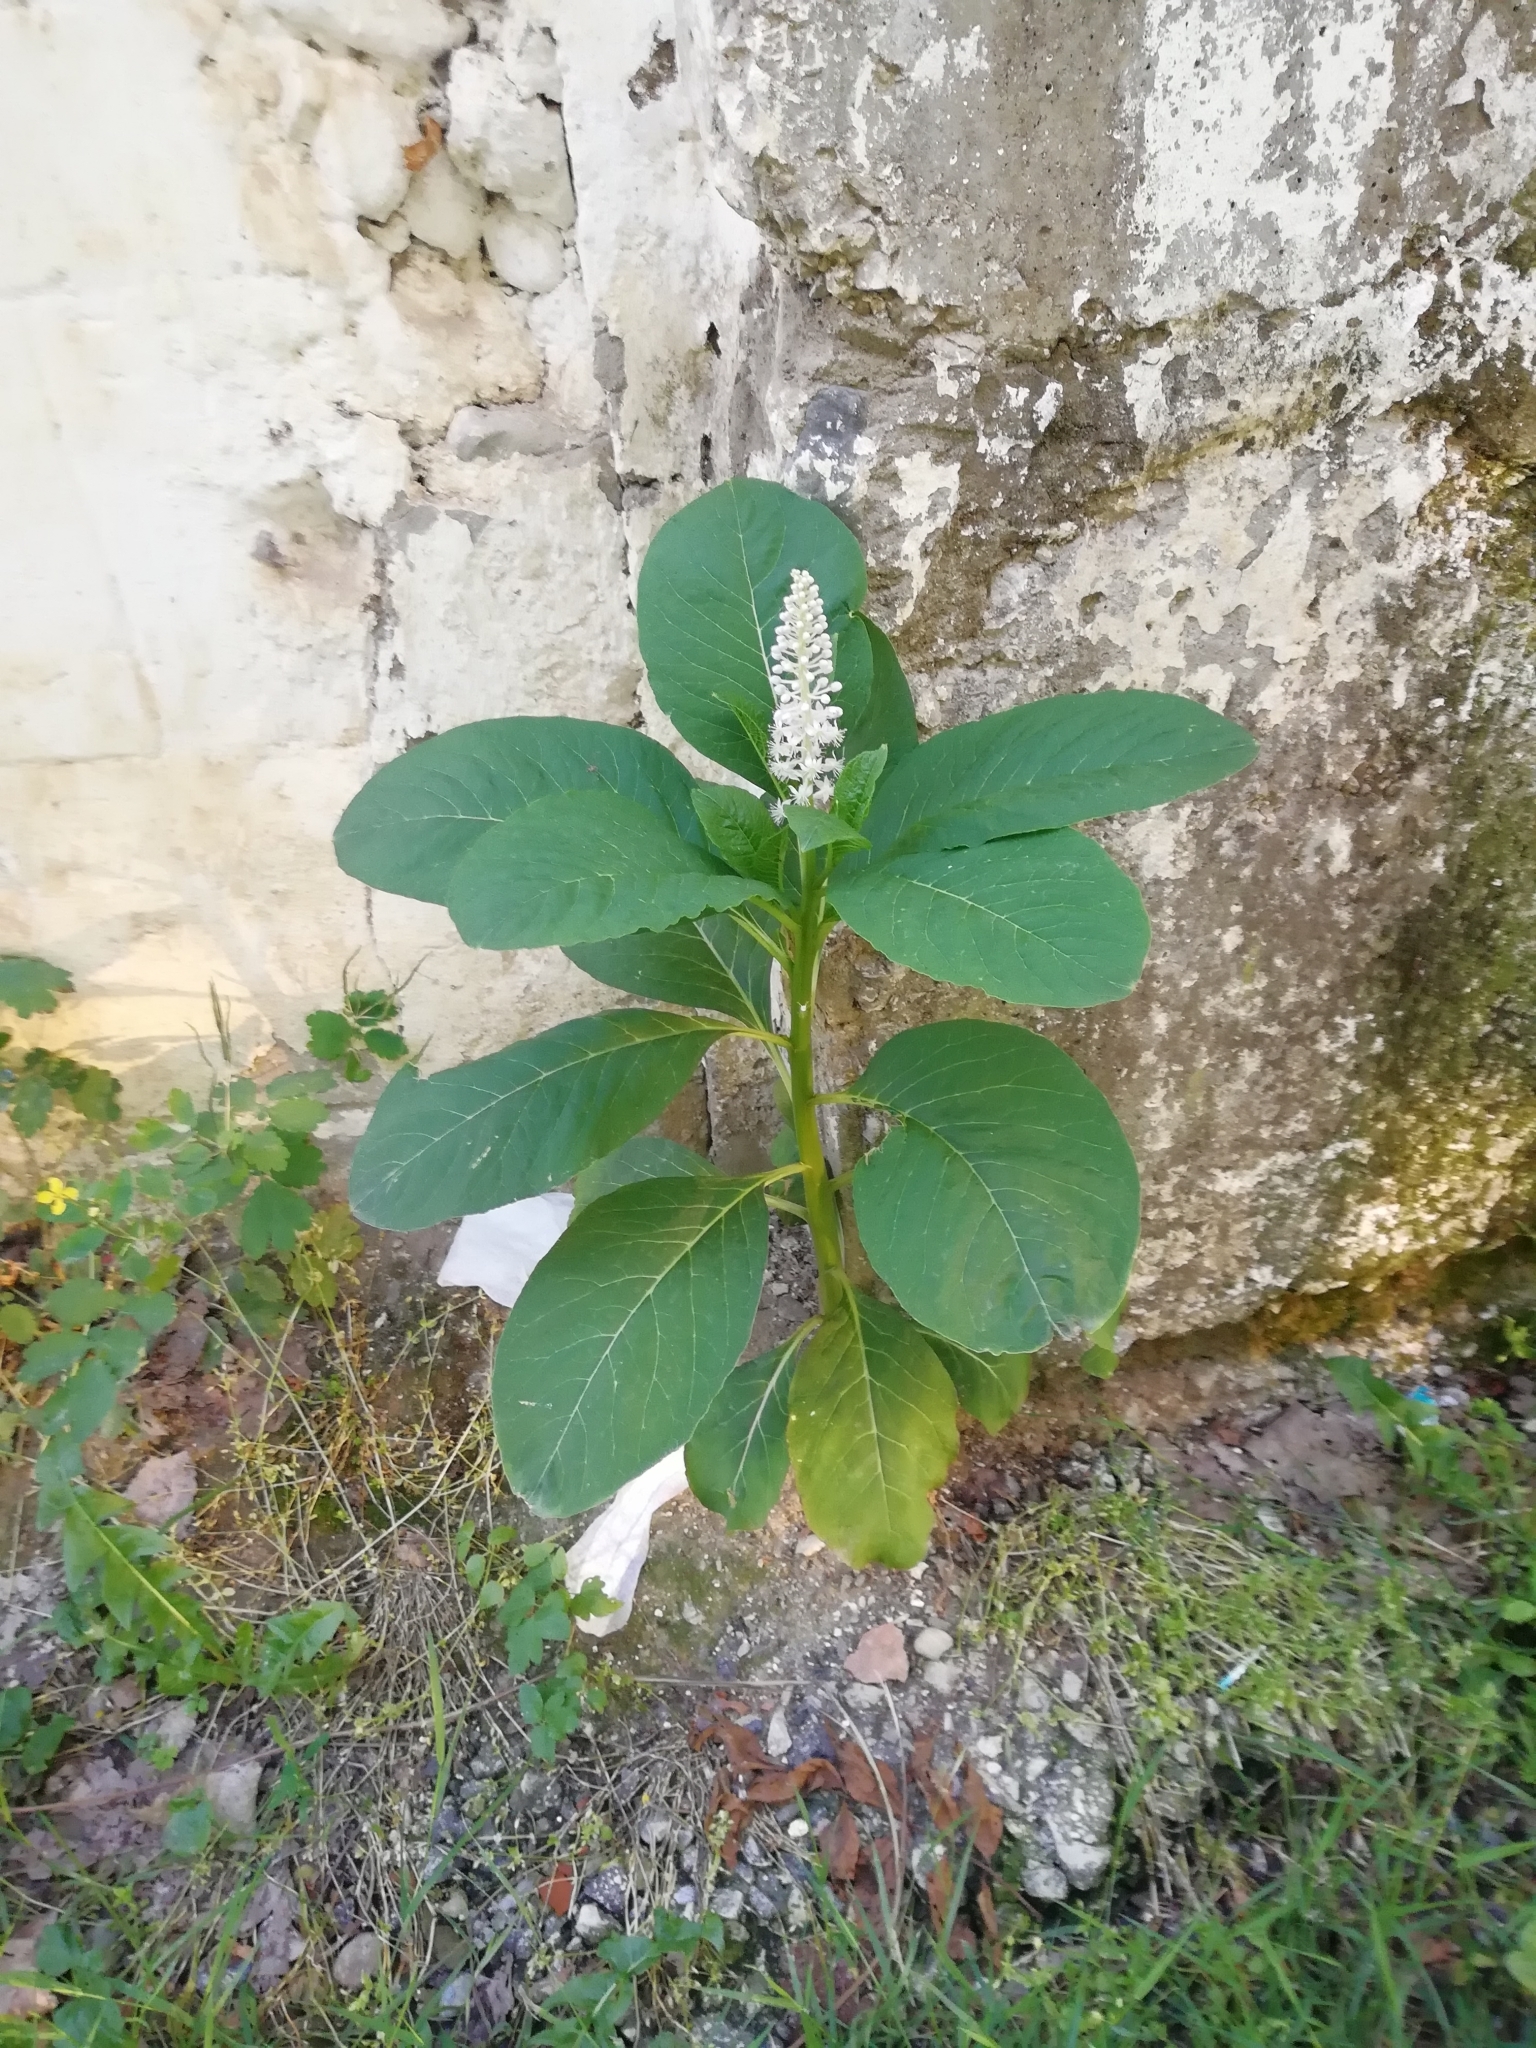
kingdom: Plantae
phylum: Tracheophyta
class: Magnoliopsida
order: Caryophyllales
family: Phytolaccaceae
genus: Phytolacca
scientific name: Phytolacca acinosa
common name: Indian pokeweed
